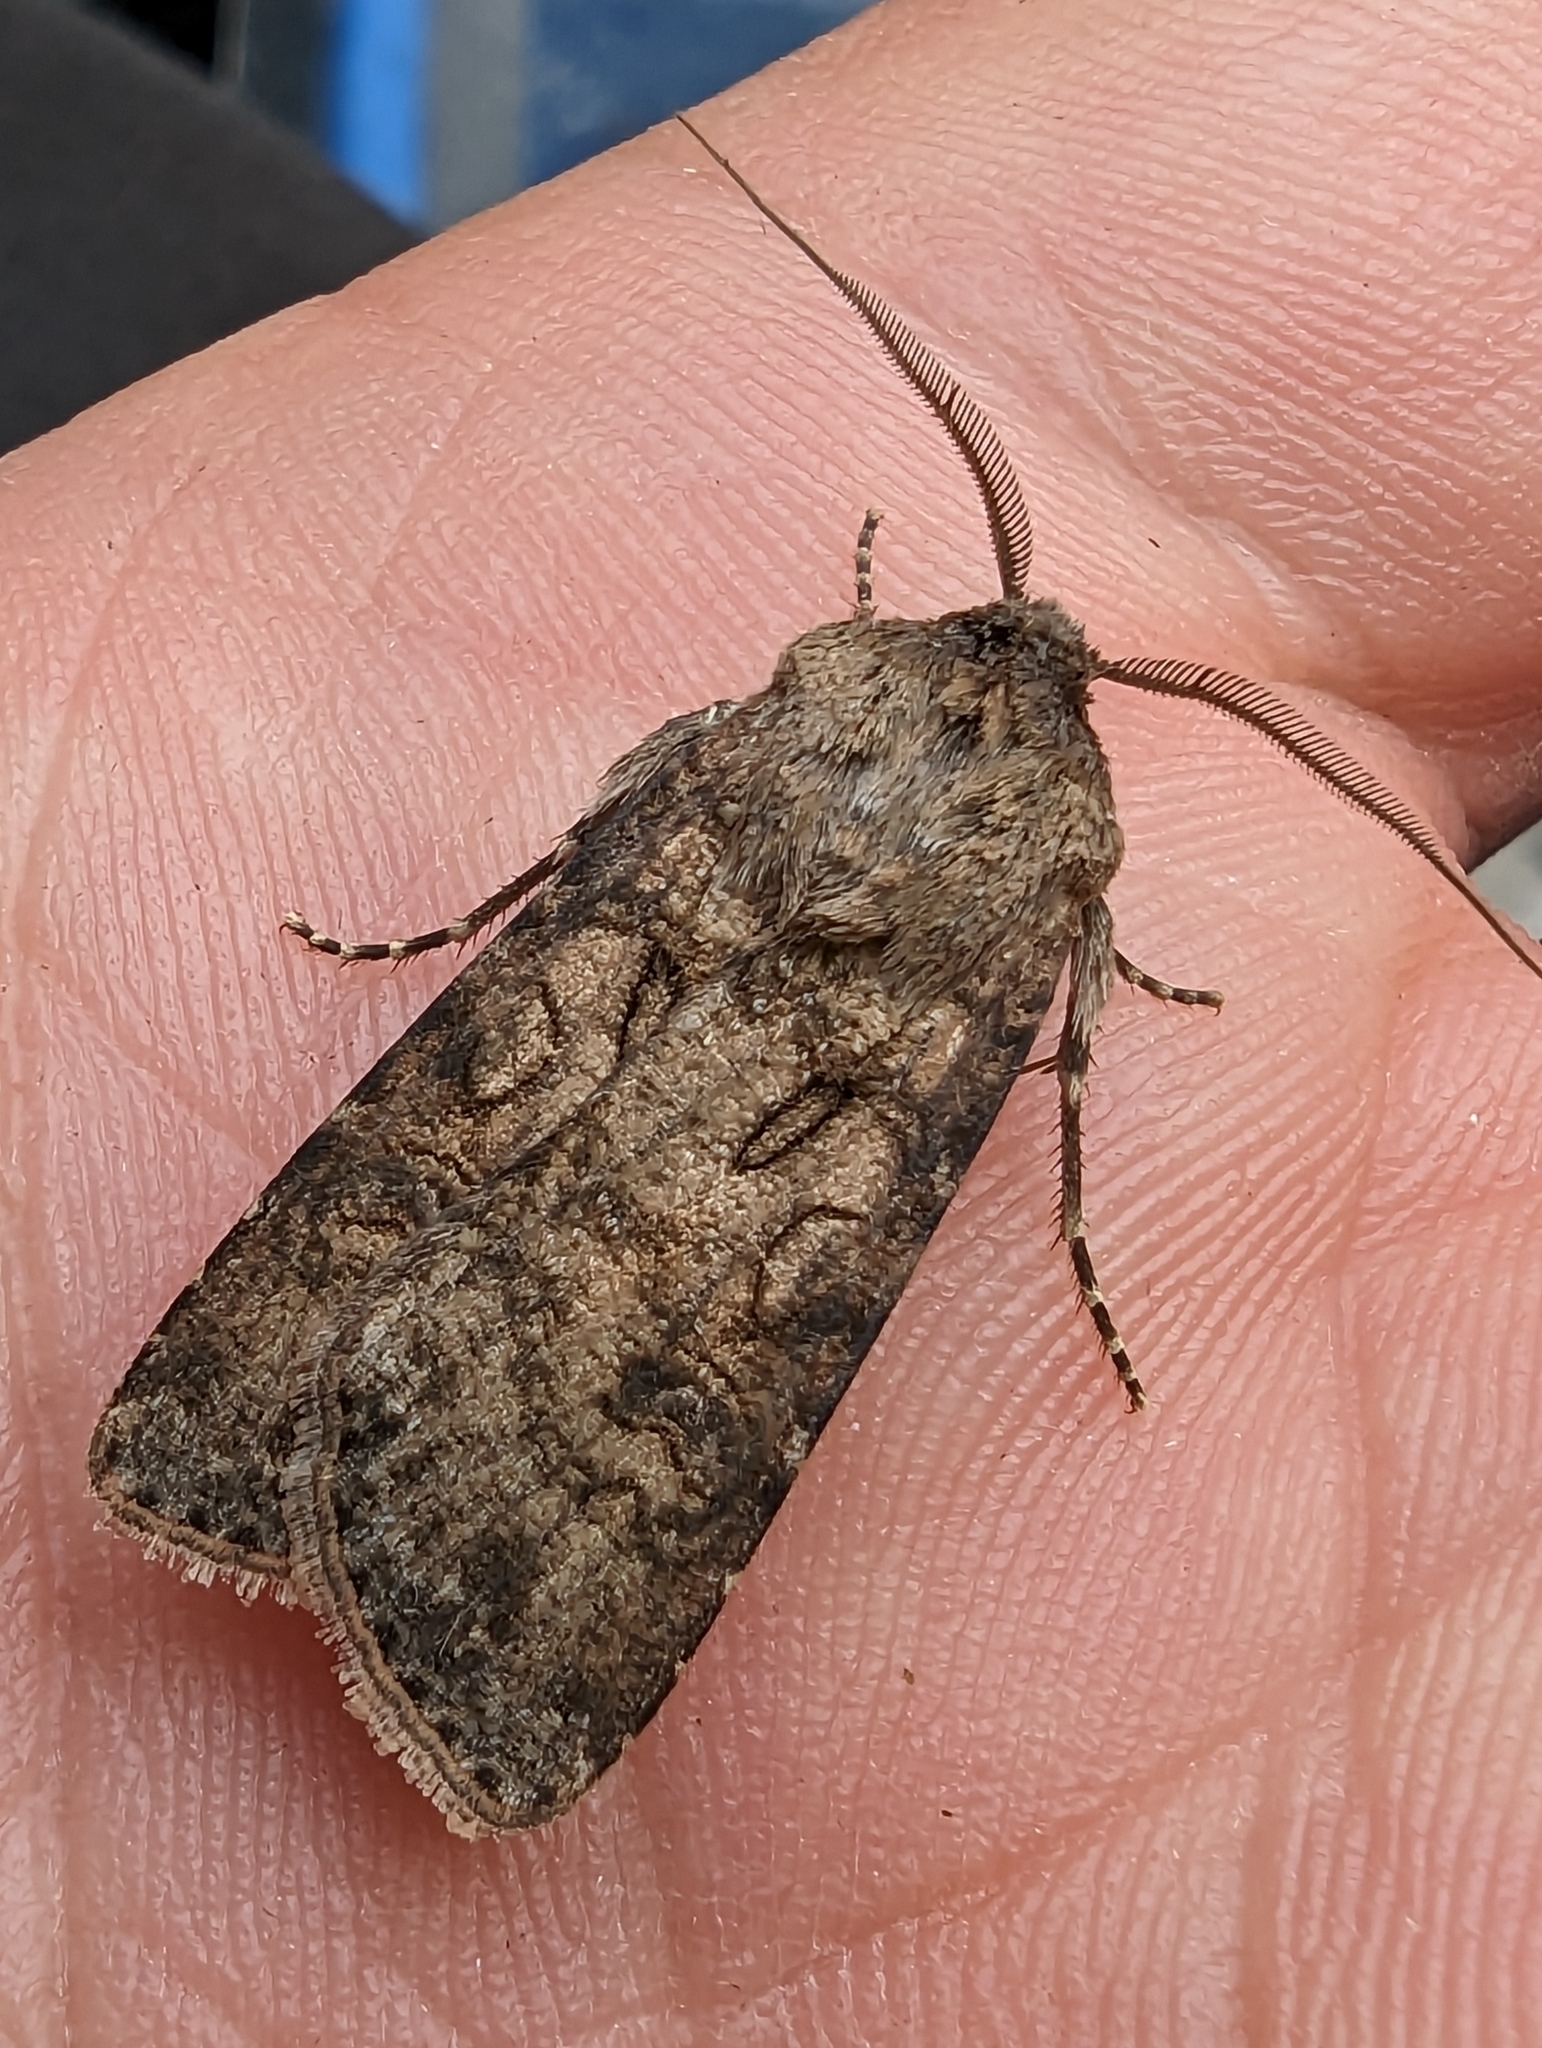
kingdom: Animalia
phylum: Arthropoda
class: Insecta
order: Lepidoptera
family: Noctuidae
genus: Agrotis
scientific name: Agrotis segetum
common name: Turnip moth
